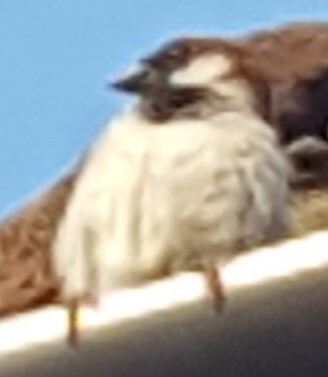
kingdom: Animalia
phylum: Chordata
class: Aves
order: Passeriformes
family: Passeridae
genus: Passer
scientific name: Passer domesticus
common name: House sparrow
